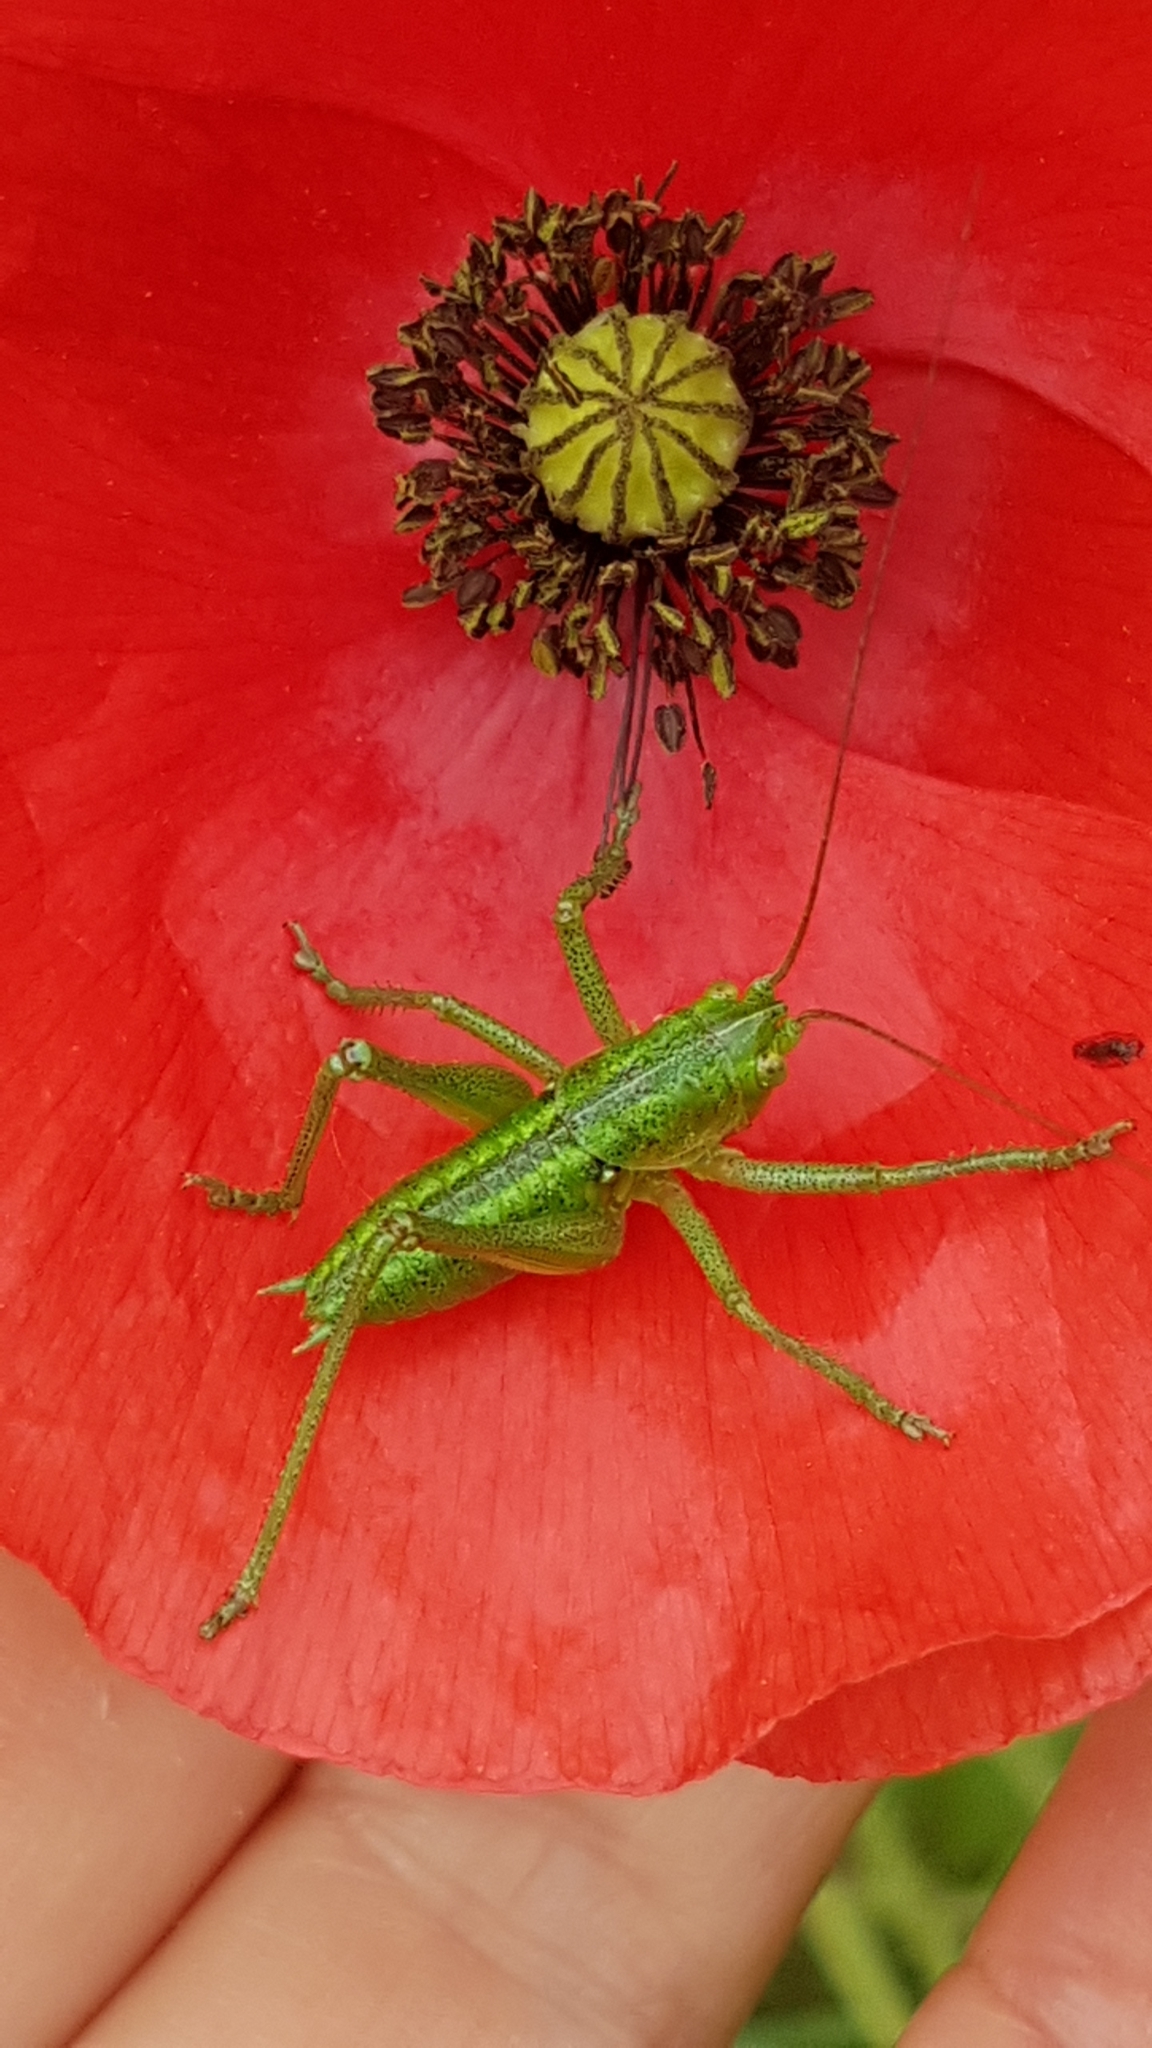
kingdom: Animalia
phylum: Arthropoda
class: Insecta
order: Orthoptera
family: Tettigoniidae
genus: Tettigonia
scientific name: Tettigonia viridissima
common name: Great green bush-cricket
